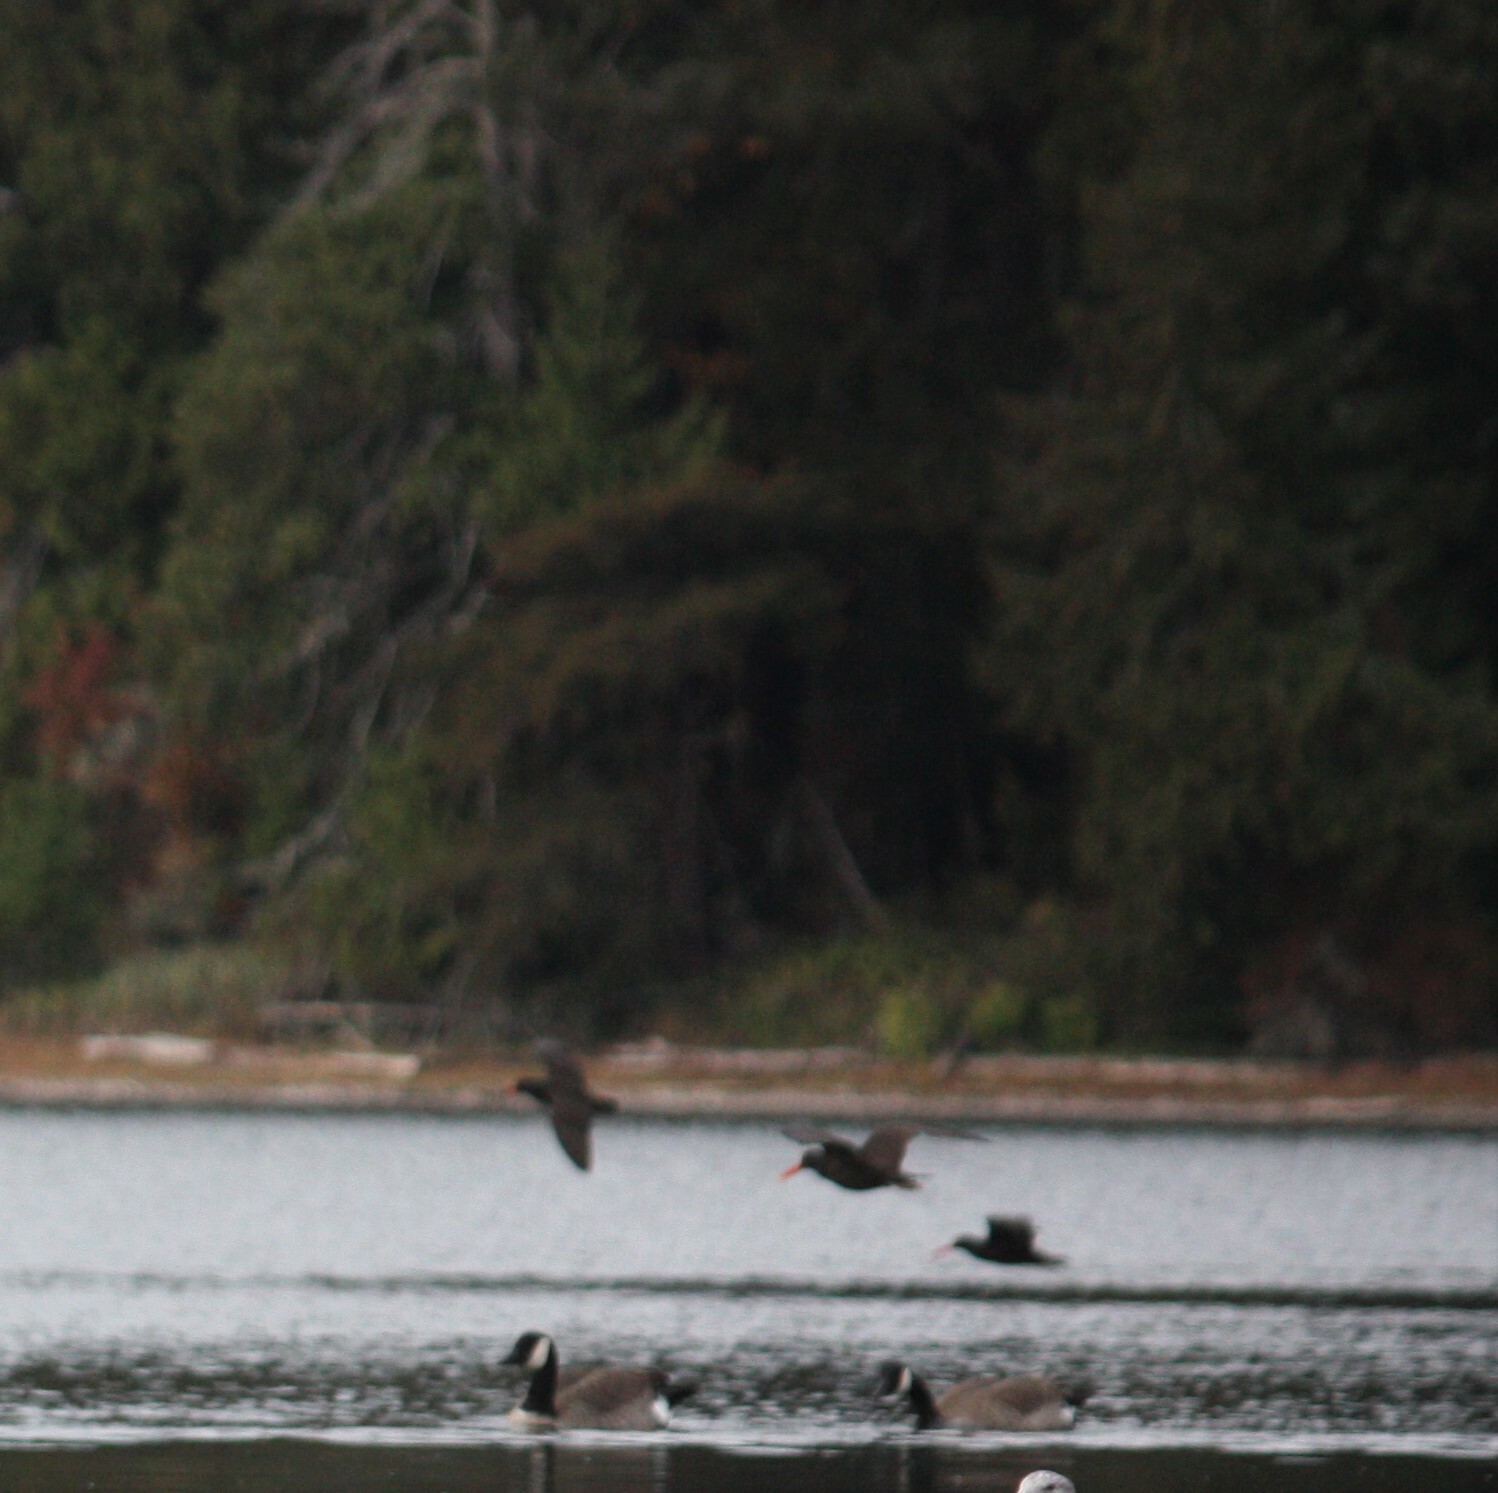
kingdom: Animalia
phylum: Chordata
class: Aves
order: Charadriiformes
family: Haematopodidae
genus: Haematopus
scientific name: Haematopus bachmani
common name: Black oystercatcher
